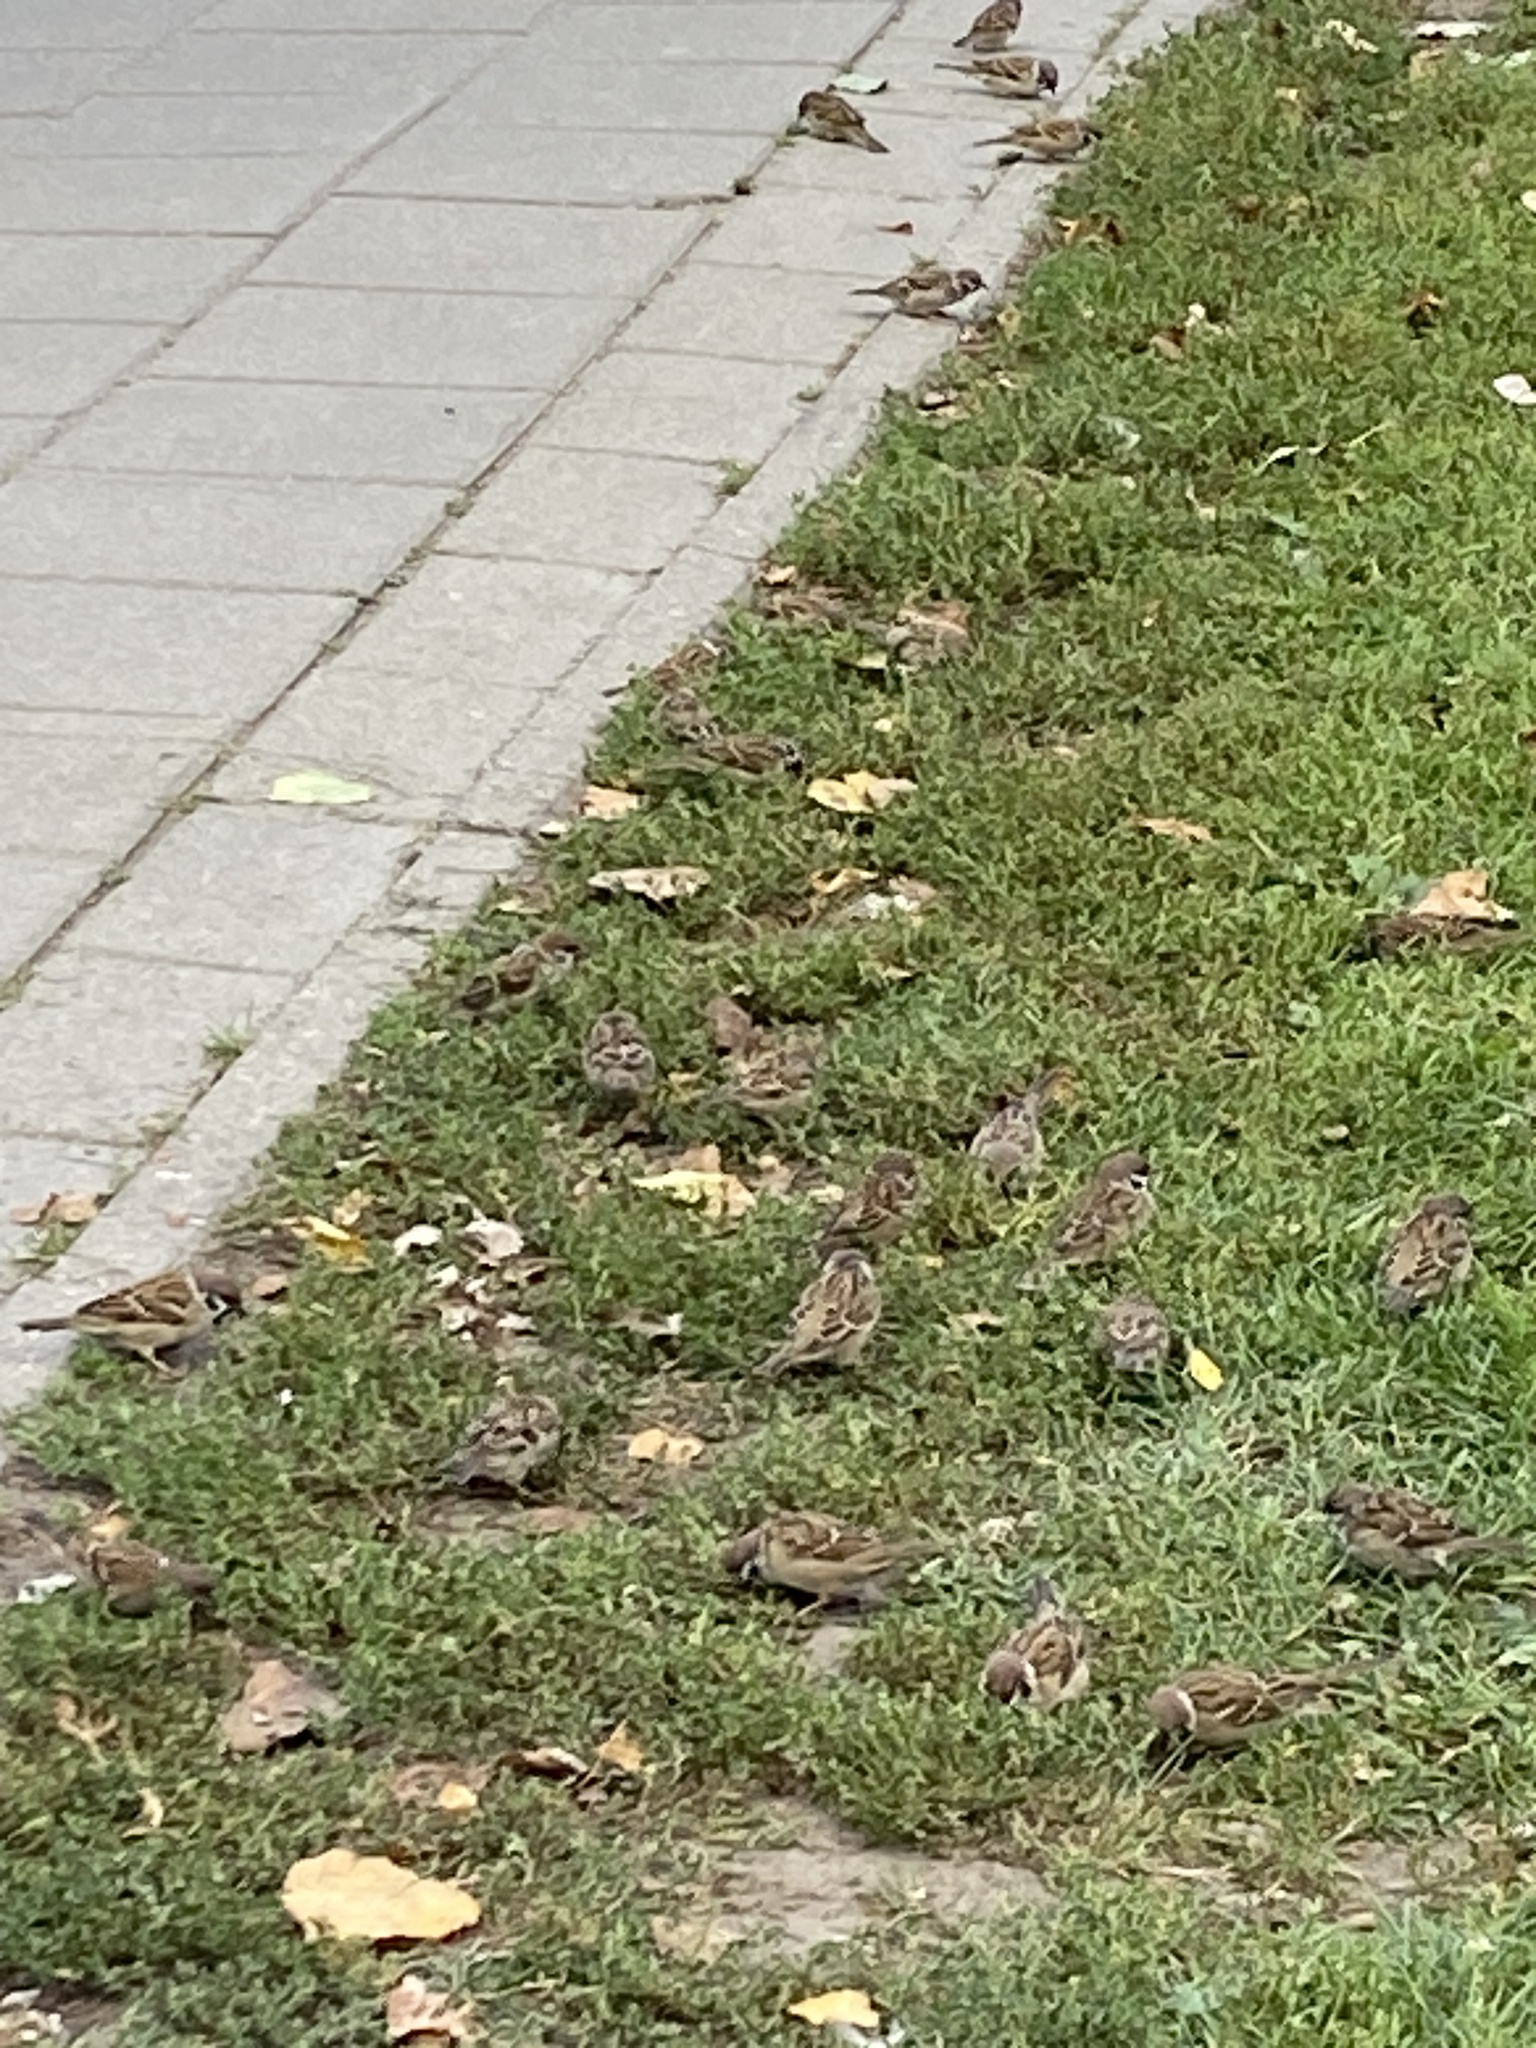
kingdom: Animalia
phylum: Chordata
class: Aves
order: Passeriformes
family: Passeridae
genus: Passer
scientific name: Passer montanus
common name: Eurasian tree sparrow
